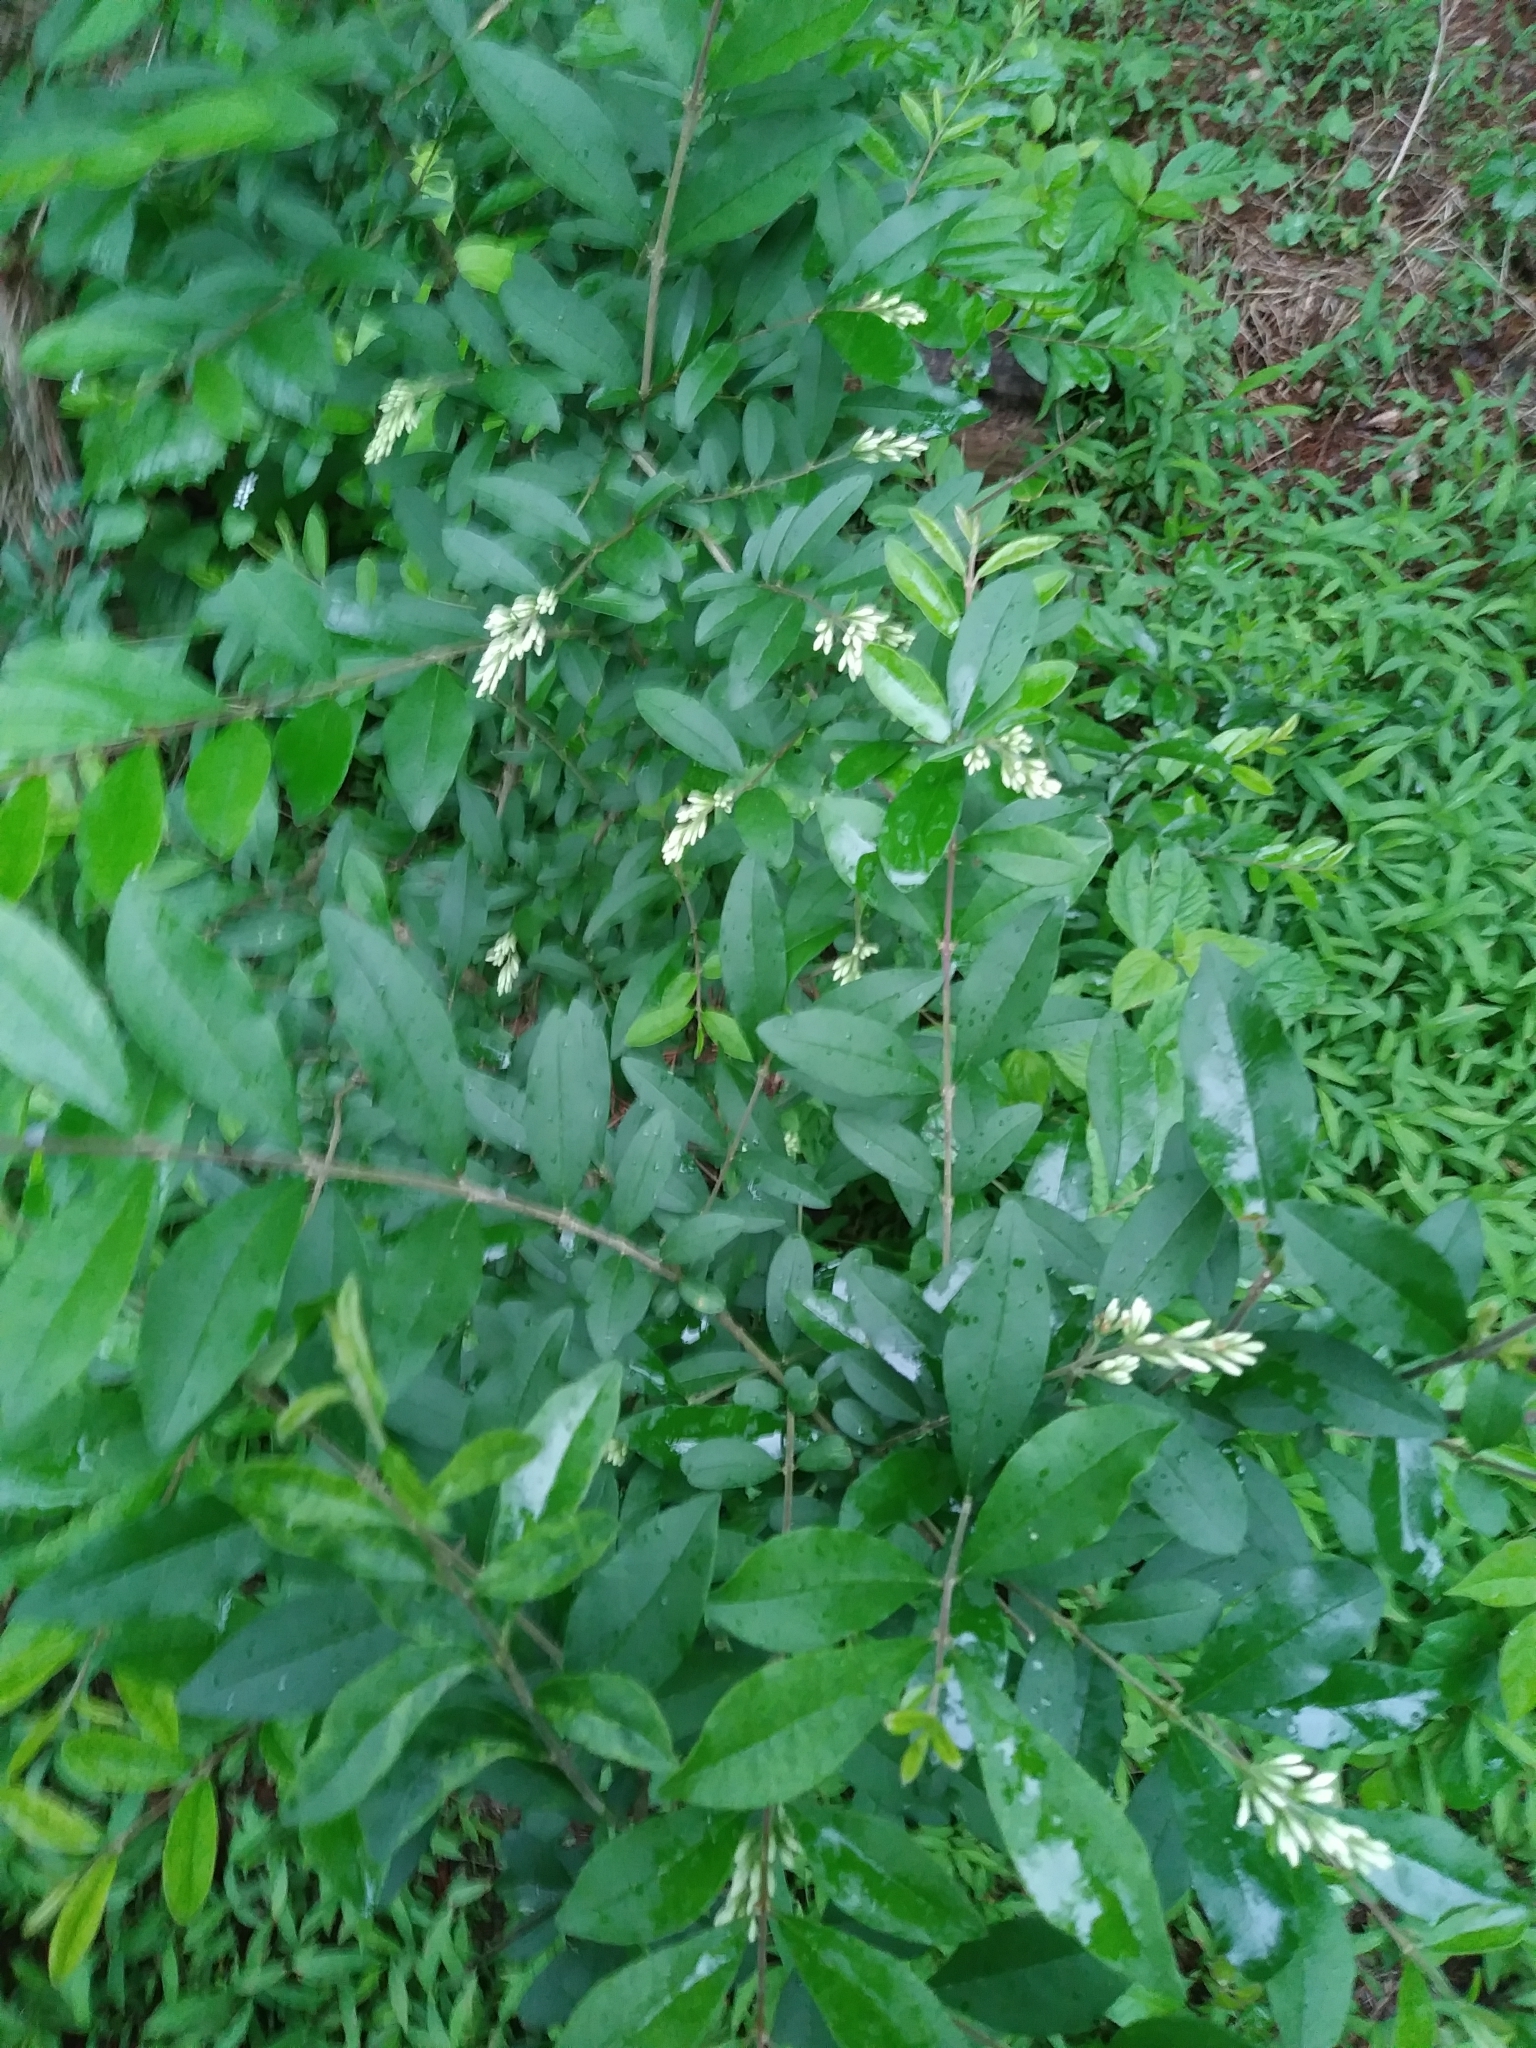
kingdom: Plantae
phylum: Tracheophyta
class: Magnoliopsida
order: Lamiales
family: Oleaceae
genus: Ligustrum
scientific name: Ligustrum obtusifolium
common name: Border privet
